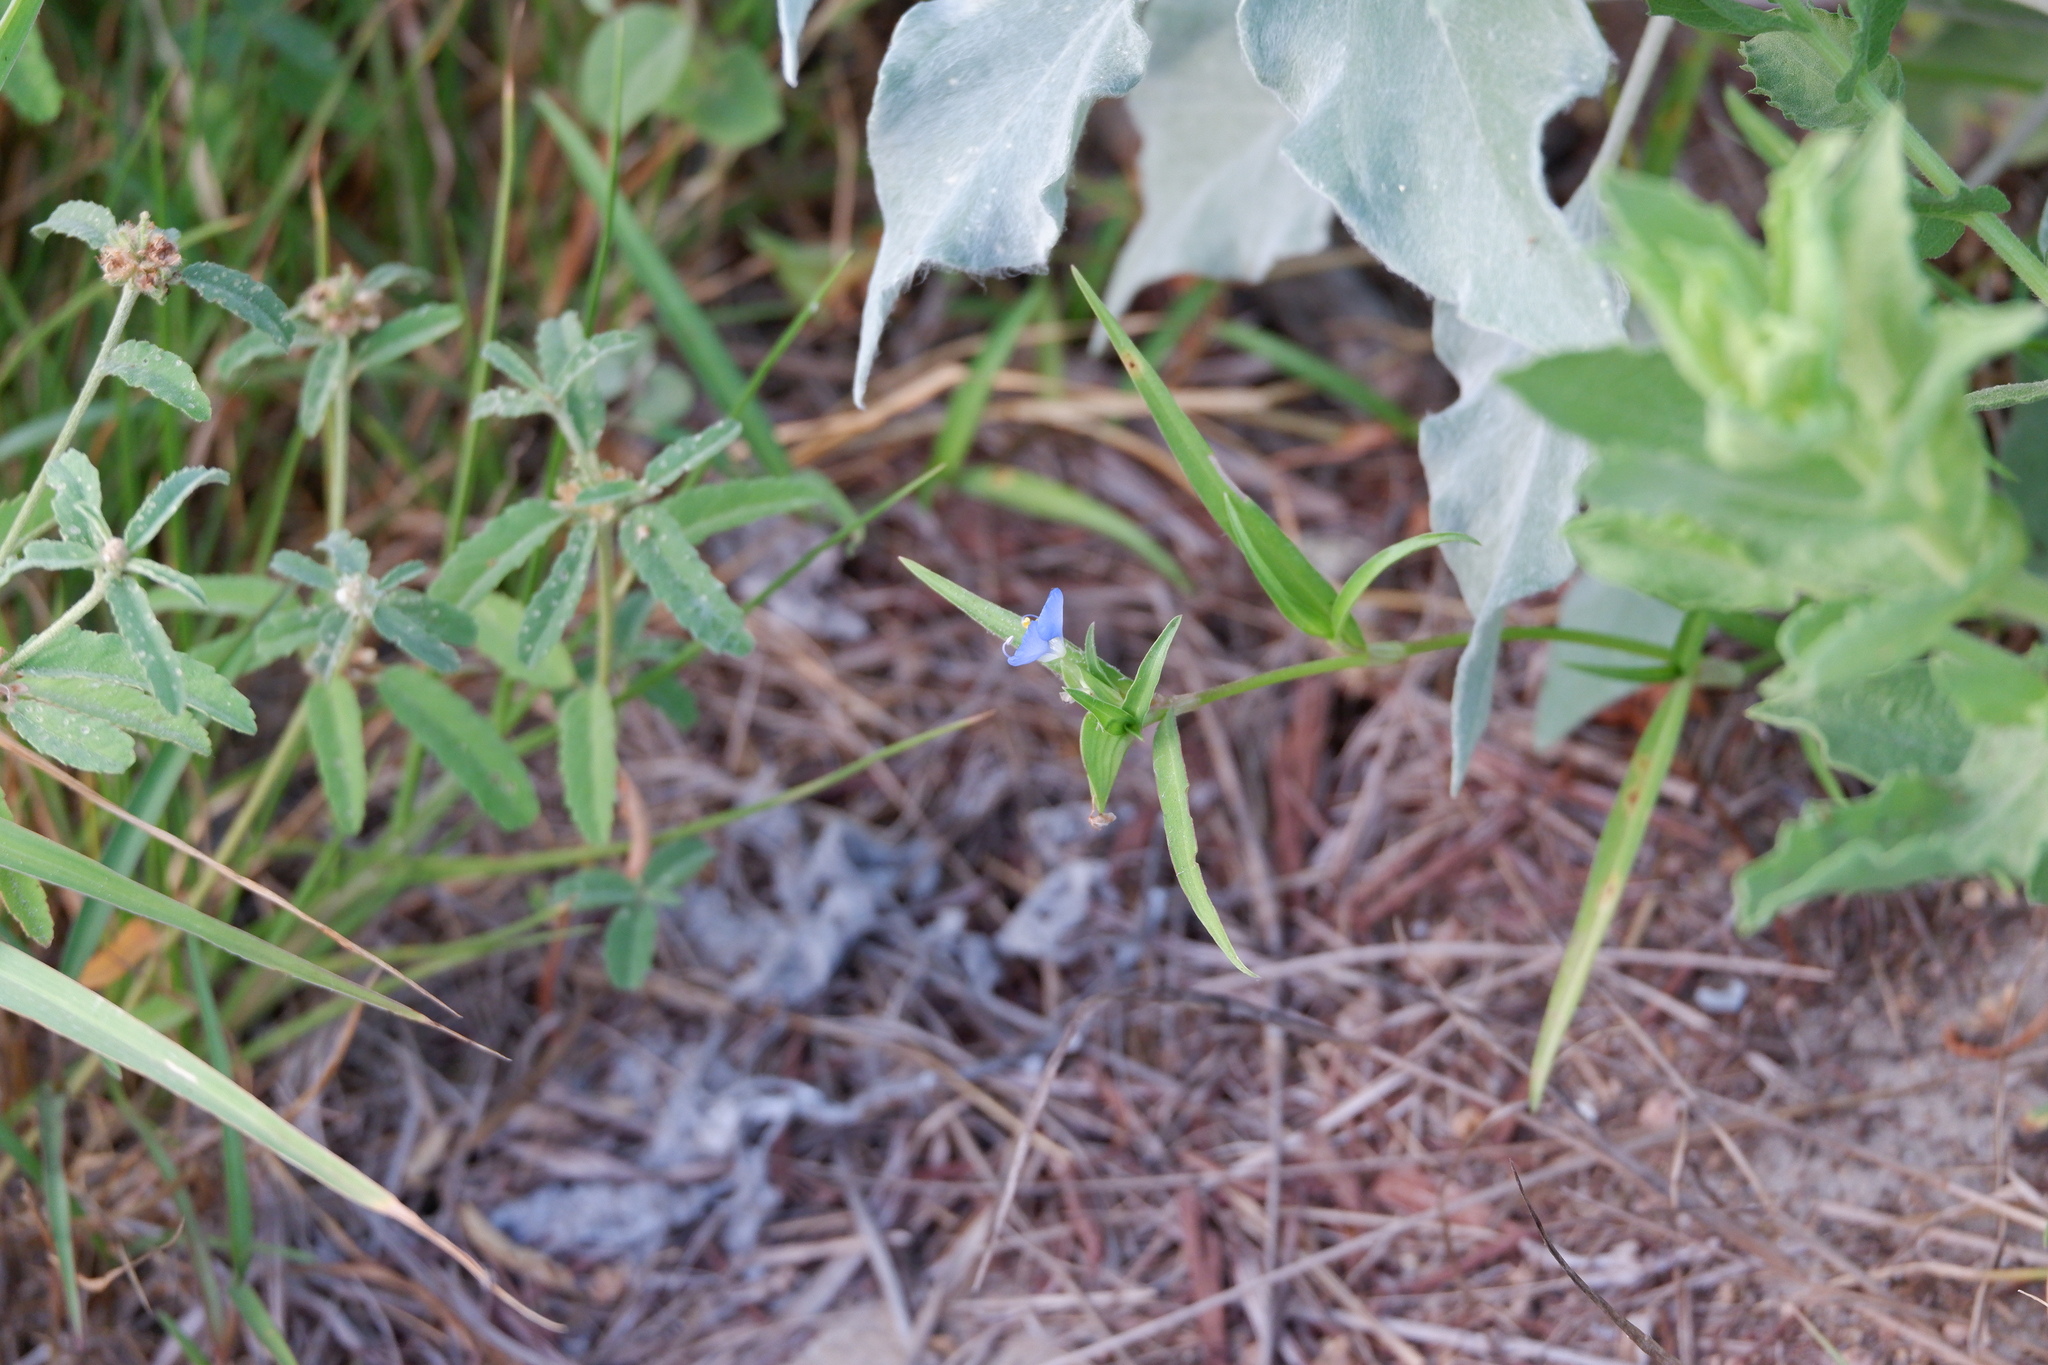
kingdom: Plantae
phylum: Tracheophyta
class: Liliopsida
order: Commelinales
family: Commelinaceae
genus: Commelina
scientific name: Commelina erecta
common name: Blousel blommetjie
